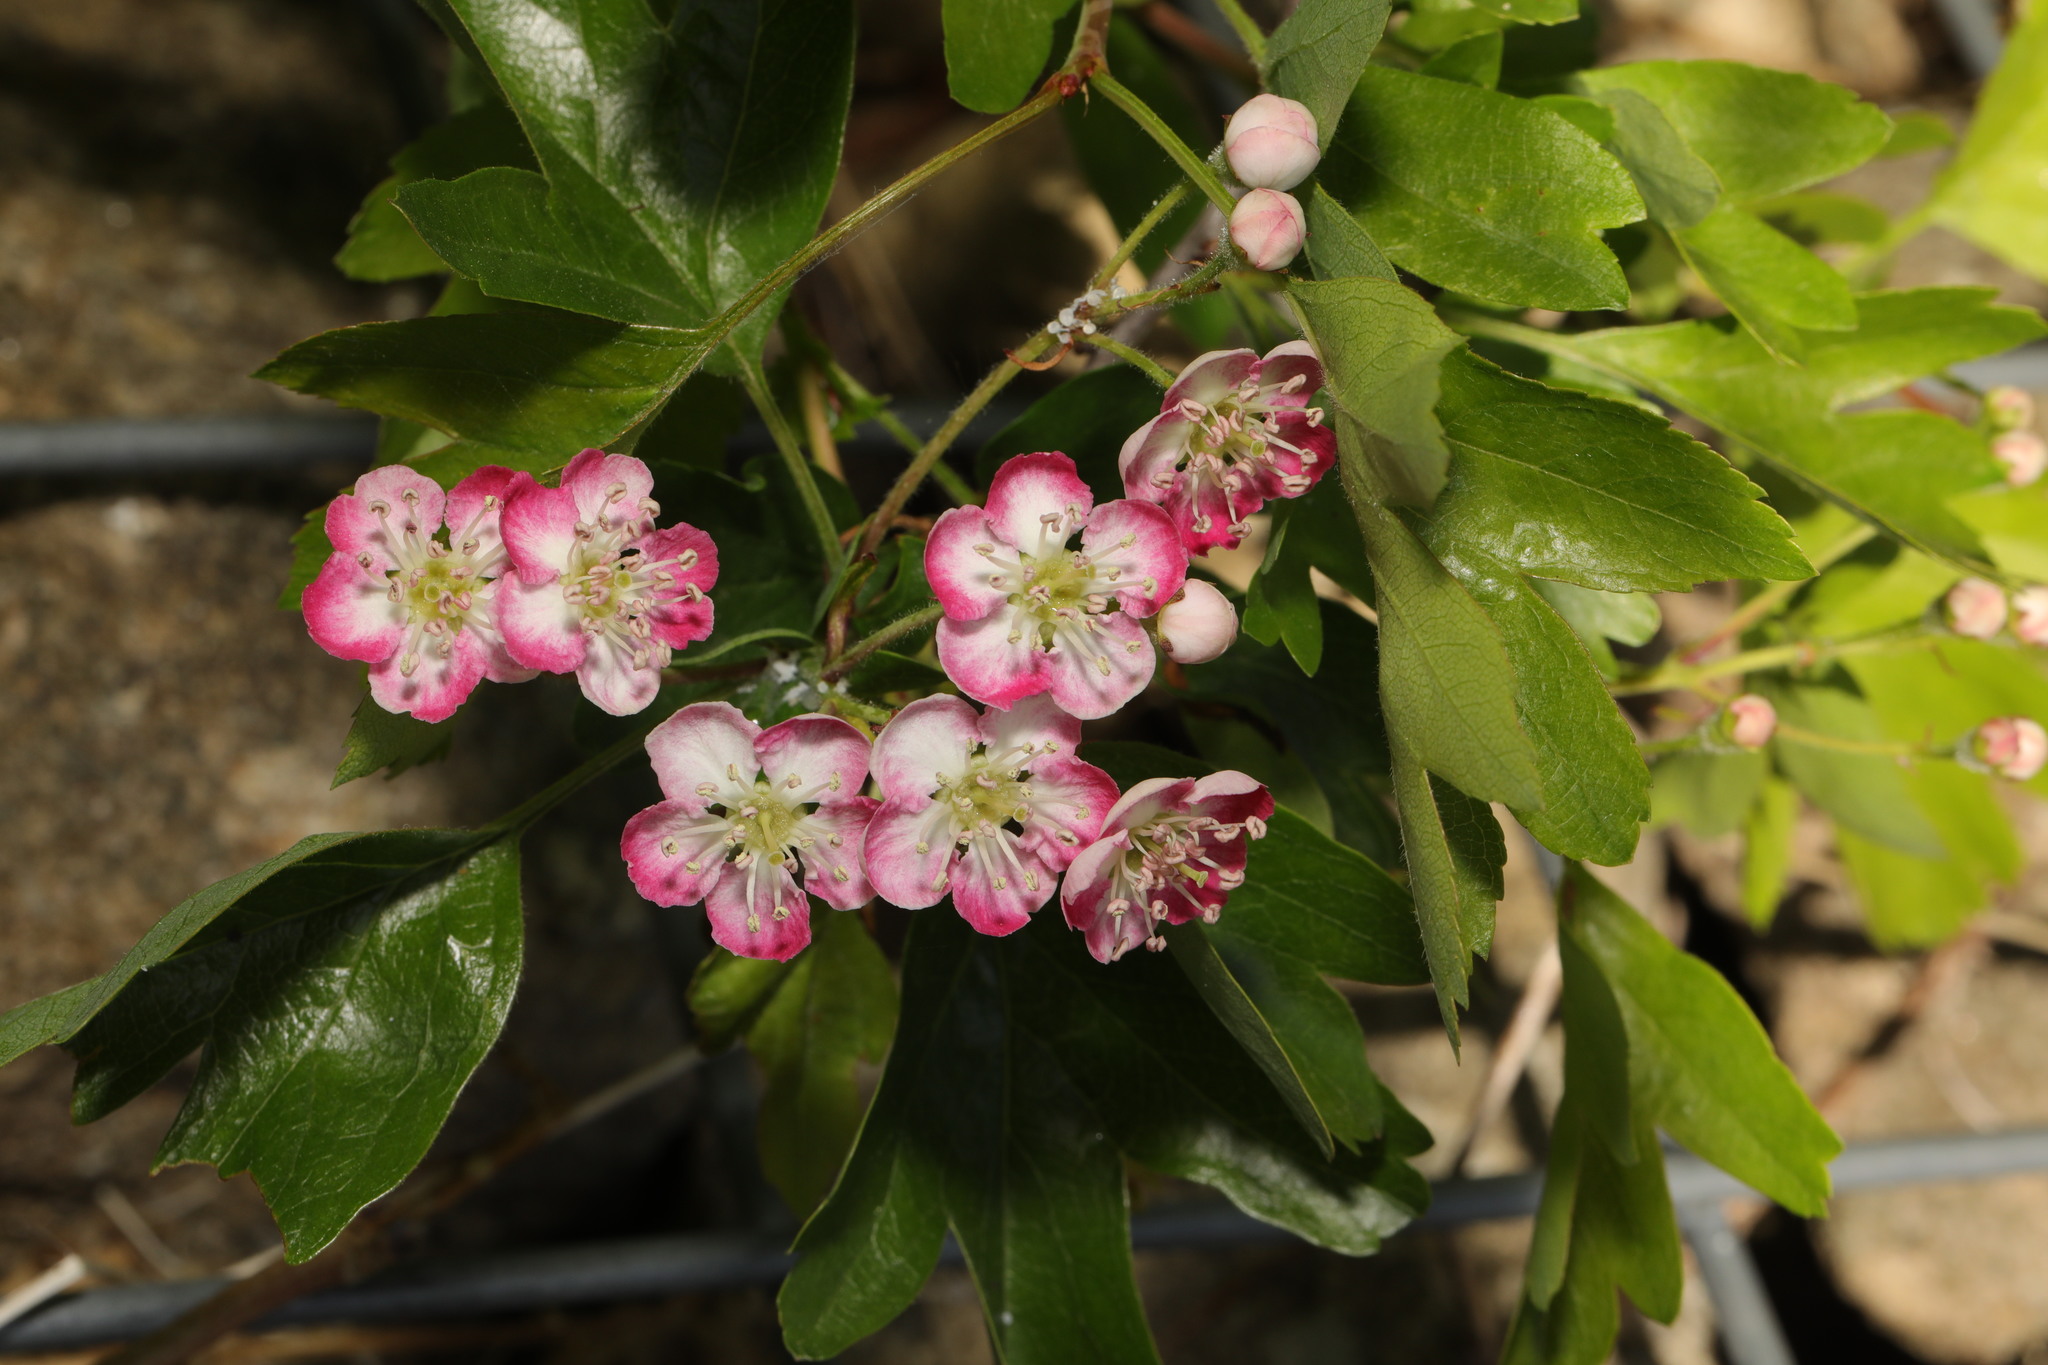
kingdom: Plantae
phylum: Tracheophyta
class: Magnoliopsida
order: Rosales
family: Rosaceae
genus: Crataegus
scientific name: Crataegus monogyna
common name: Hawthorn
